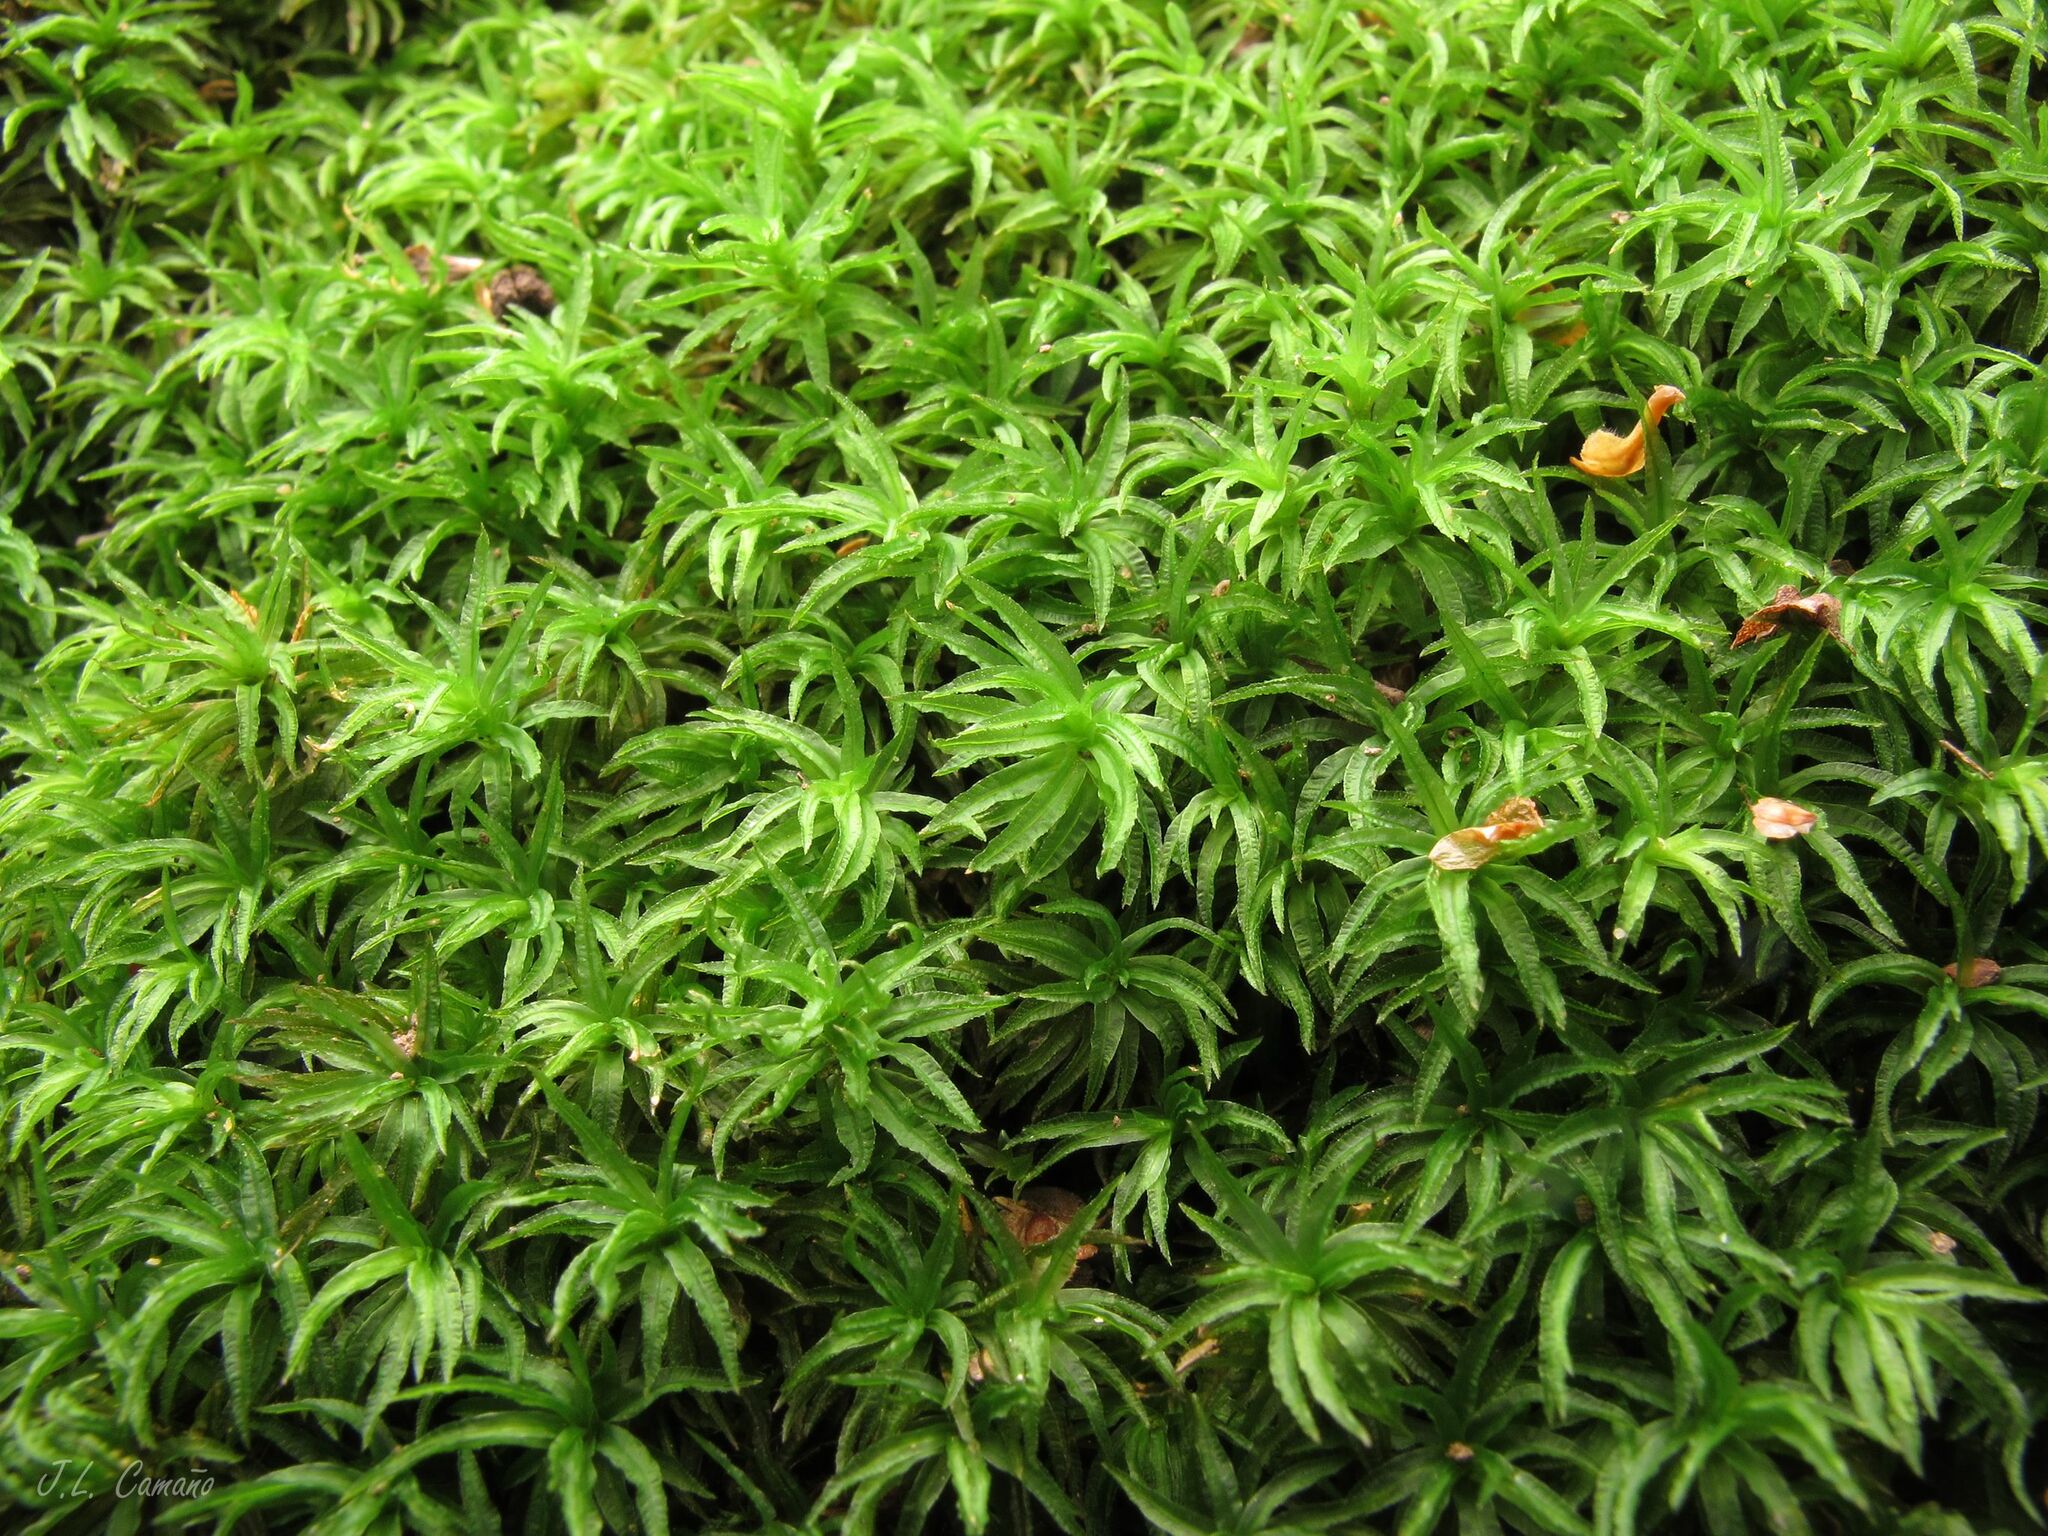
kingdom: Plantae
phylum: Bryophyta
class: Polytrichopsida
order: Polytrichales
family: Polytrichaceae
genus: Atrichum
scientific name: Atrichum undulatum
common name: Common smoothcap
